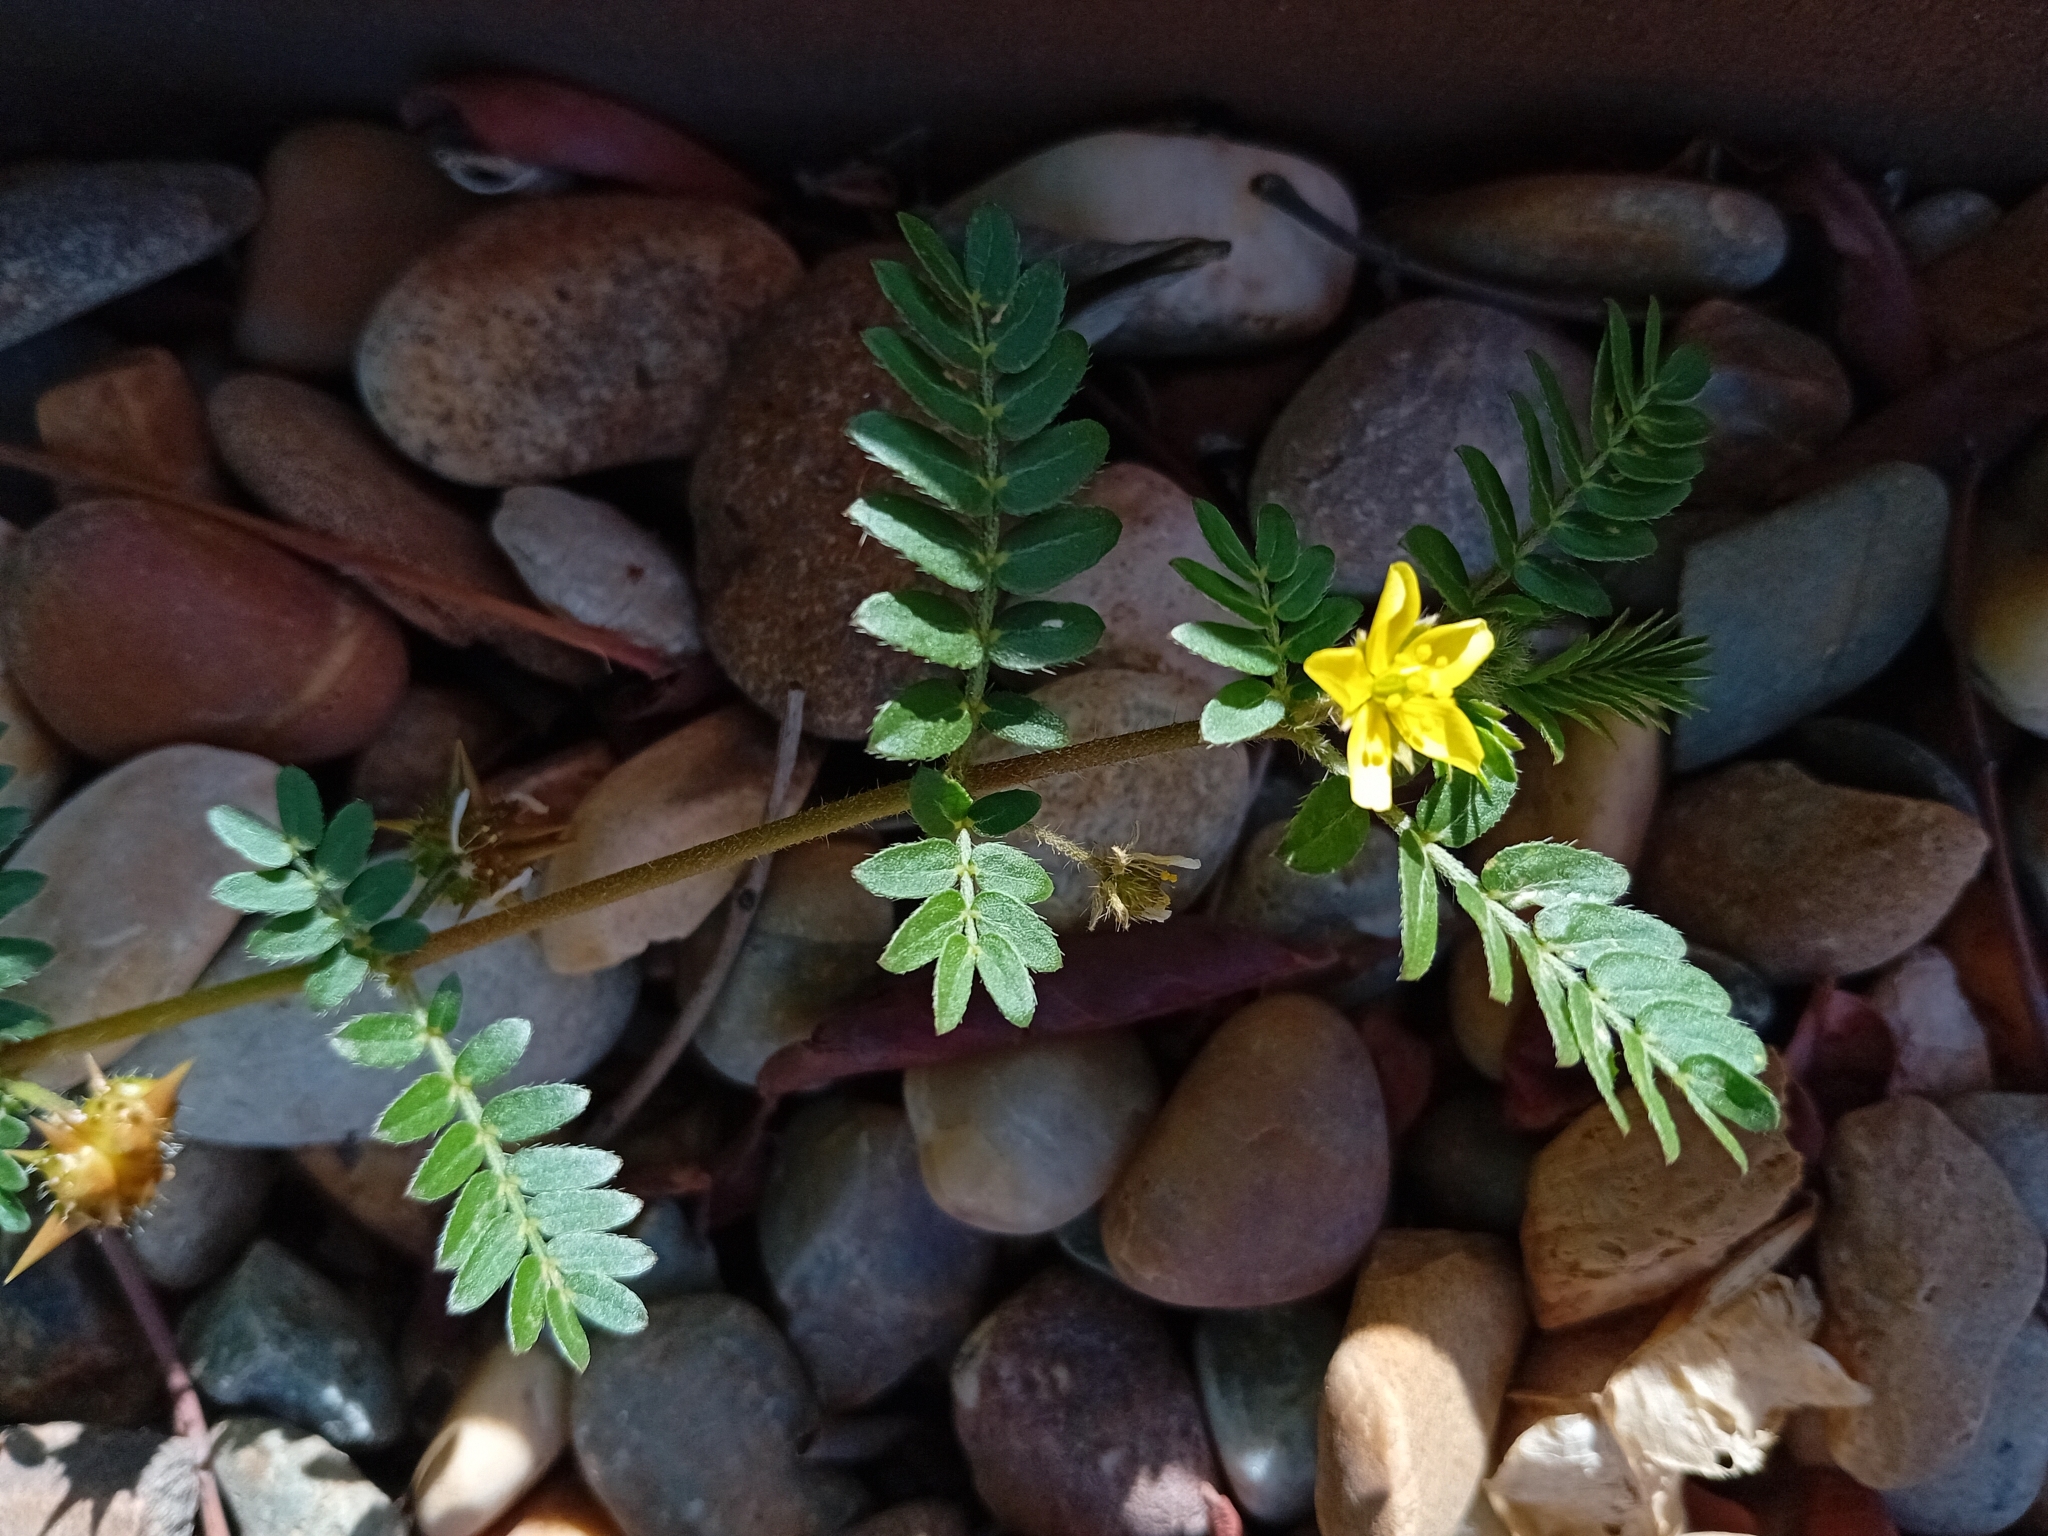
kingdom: Plantae
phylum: Tracheophyta
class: Magnoliopsida
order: Zygophyllales
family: Zygophyllaceae
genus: Tribulus
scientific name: Tribulus terrestris
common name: Puncturevine
